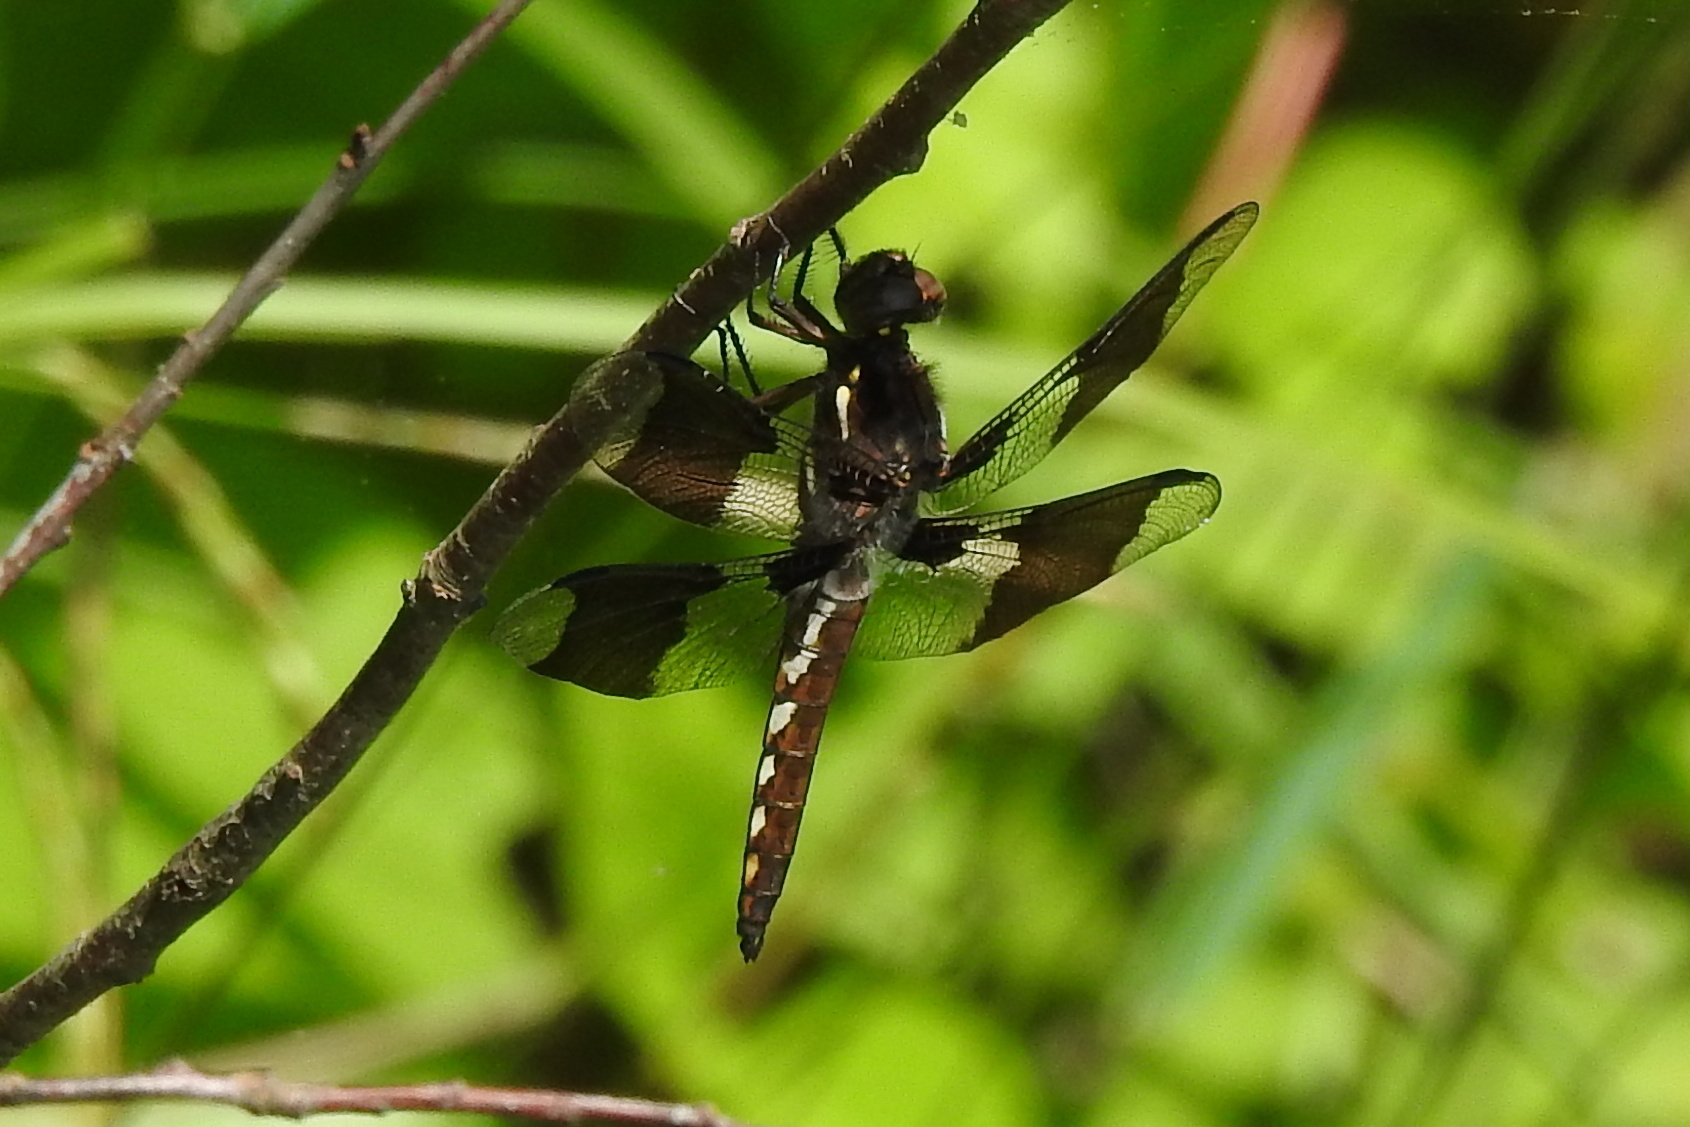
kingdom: Animalia
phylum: Arthropoda
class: Insecta
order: Odonata
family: Libellulidae
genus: Plathemis
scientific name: Plathemis lydia
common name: Common whitetail
